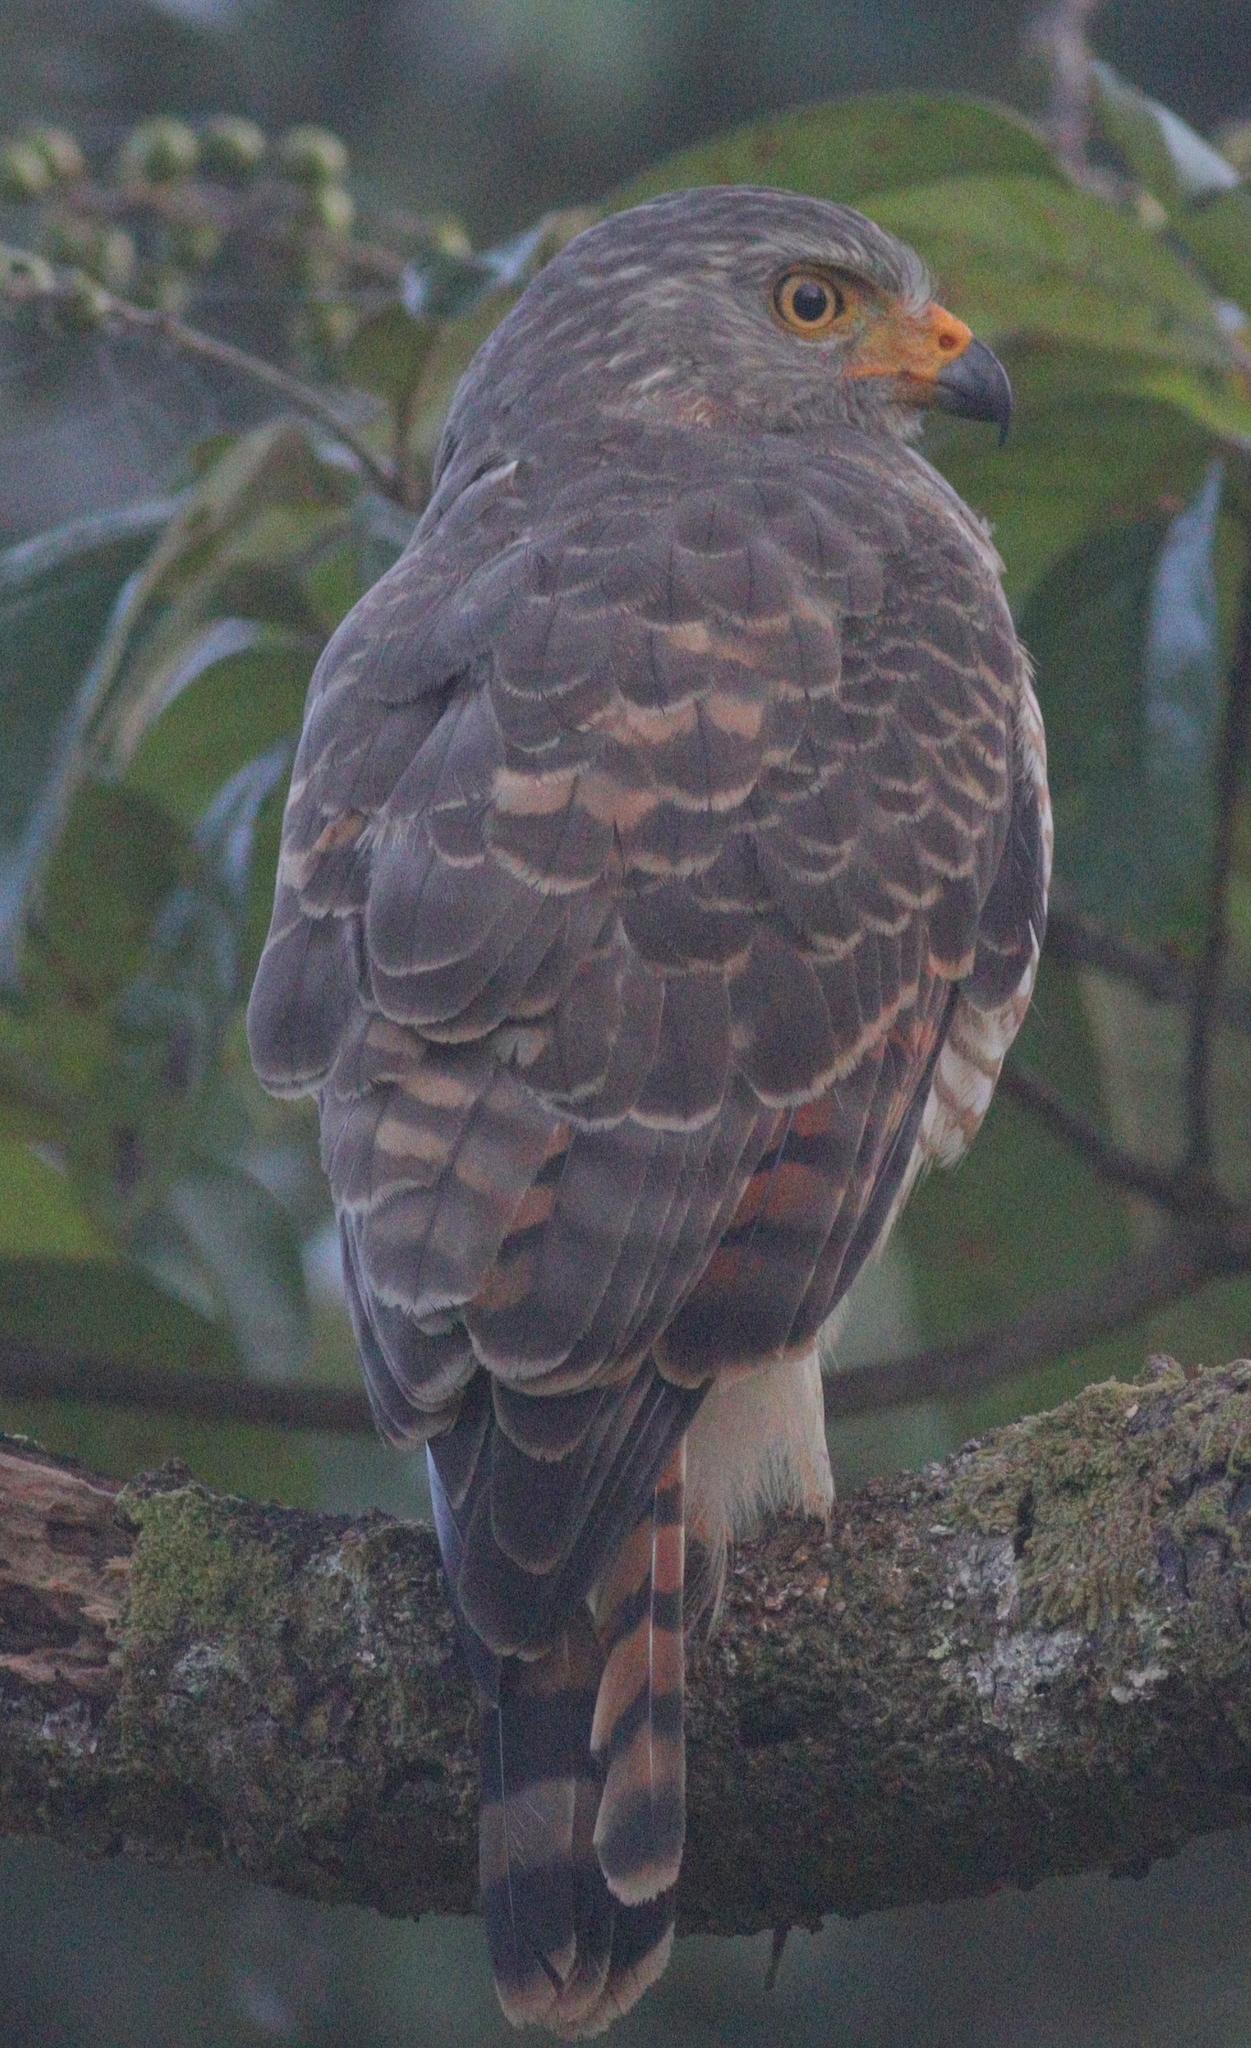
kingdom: Animalia
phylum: Chordata
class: Aves
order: Accipitriformes
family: Accipitridae
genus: Rupornis
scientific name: Rupornis magnirostris
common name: Roadside hawk
